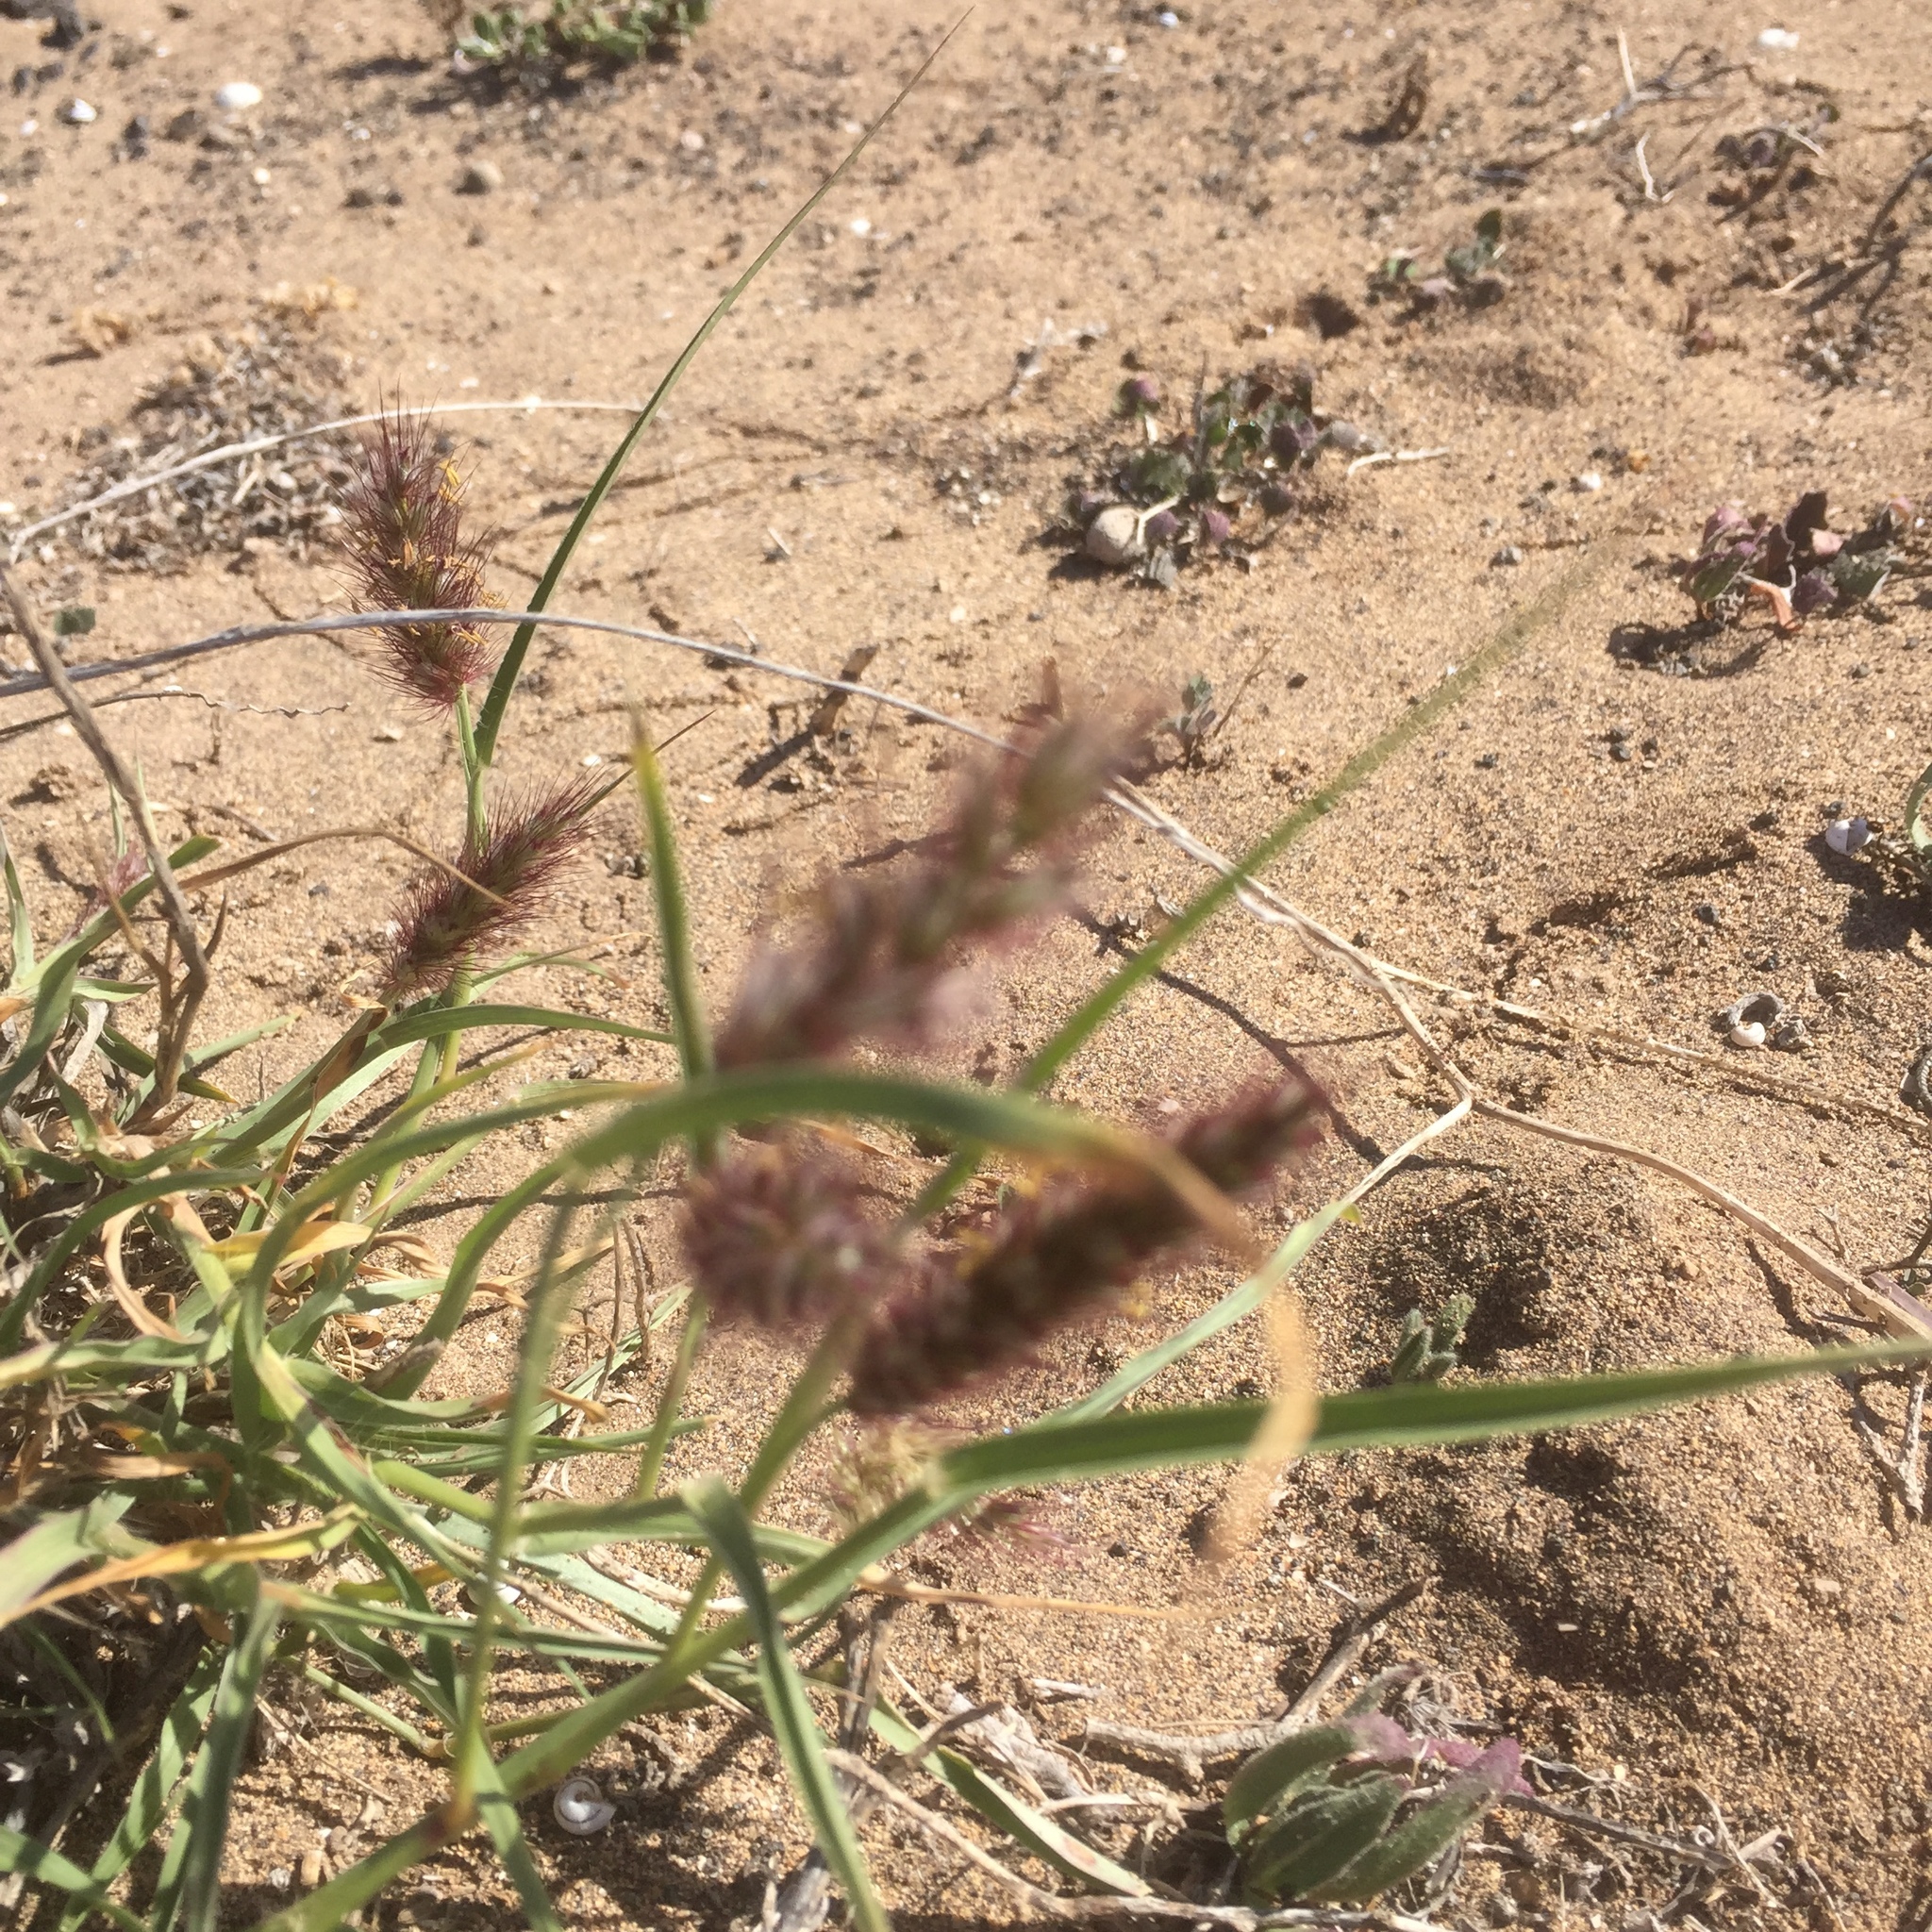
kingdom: Plantae
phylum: Tracheophyta
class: Liliopsida
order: Poales
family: Poaceae
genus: Cenchrus
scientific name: Cenchrus ciliaris
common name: Buffelgrass
